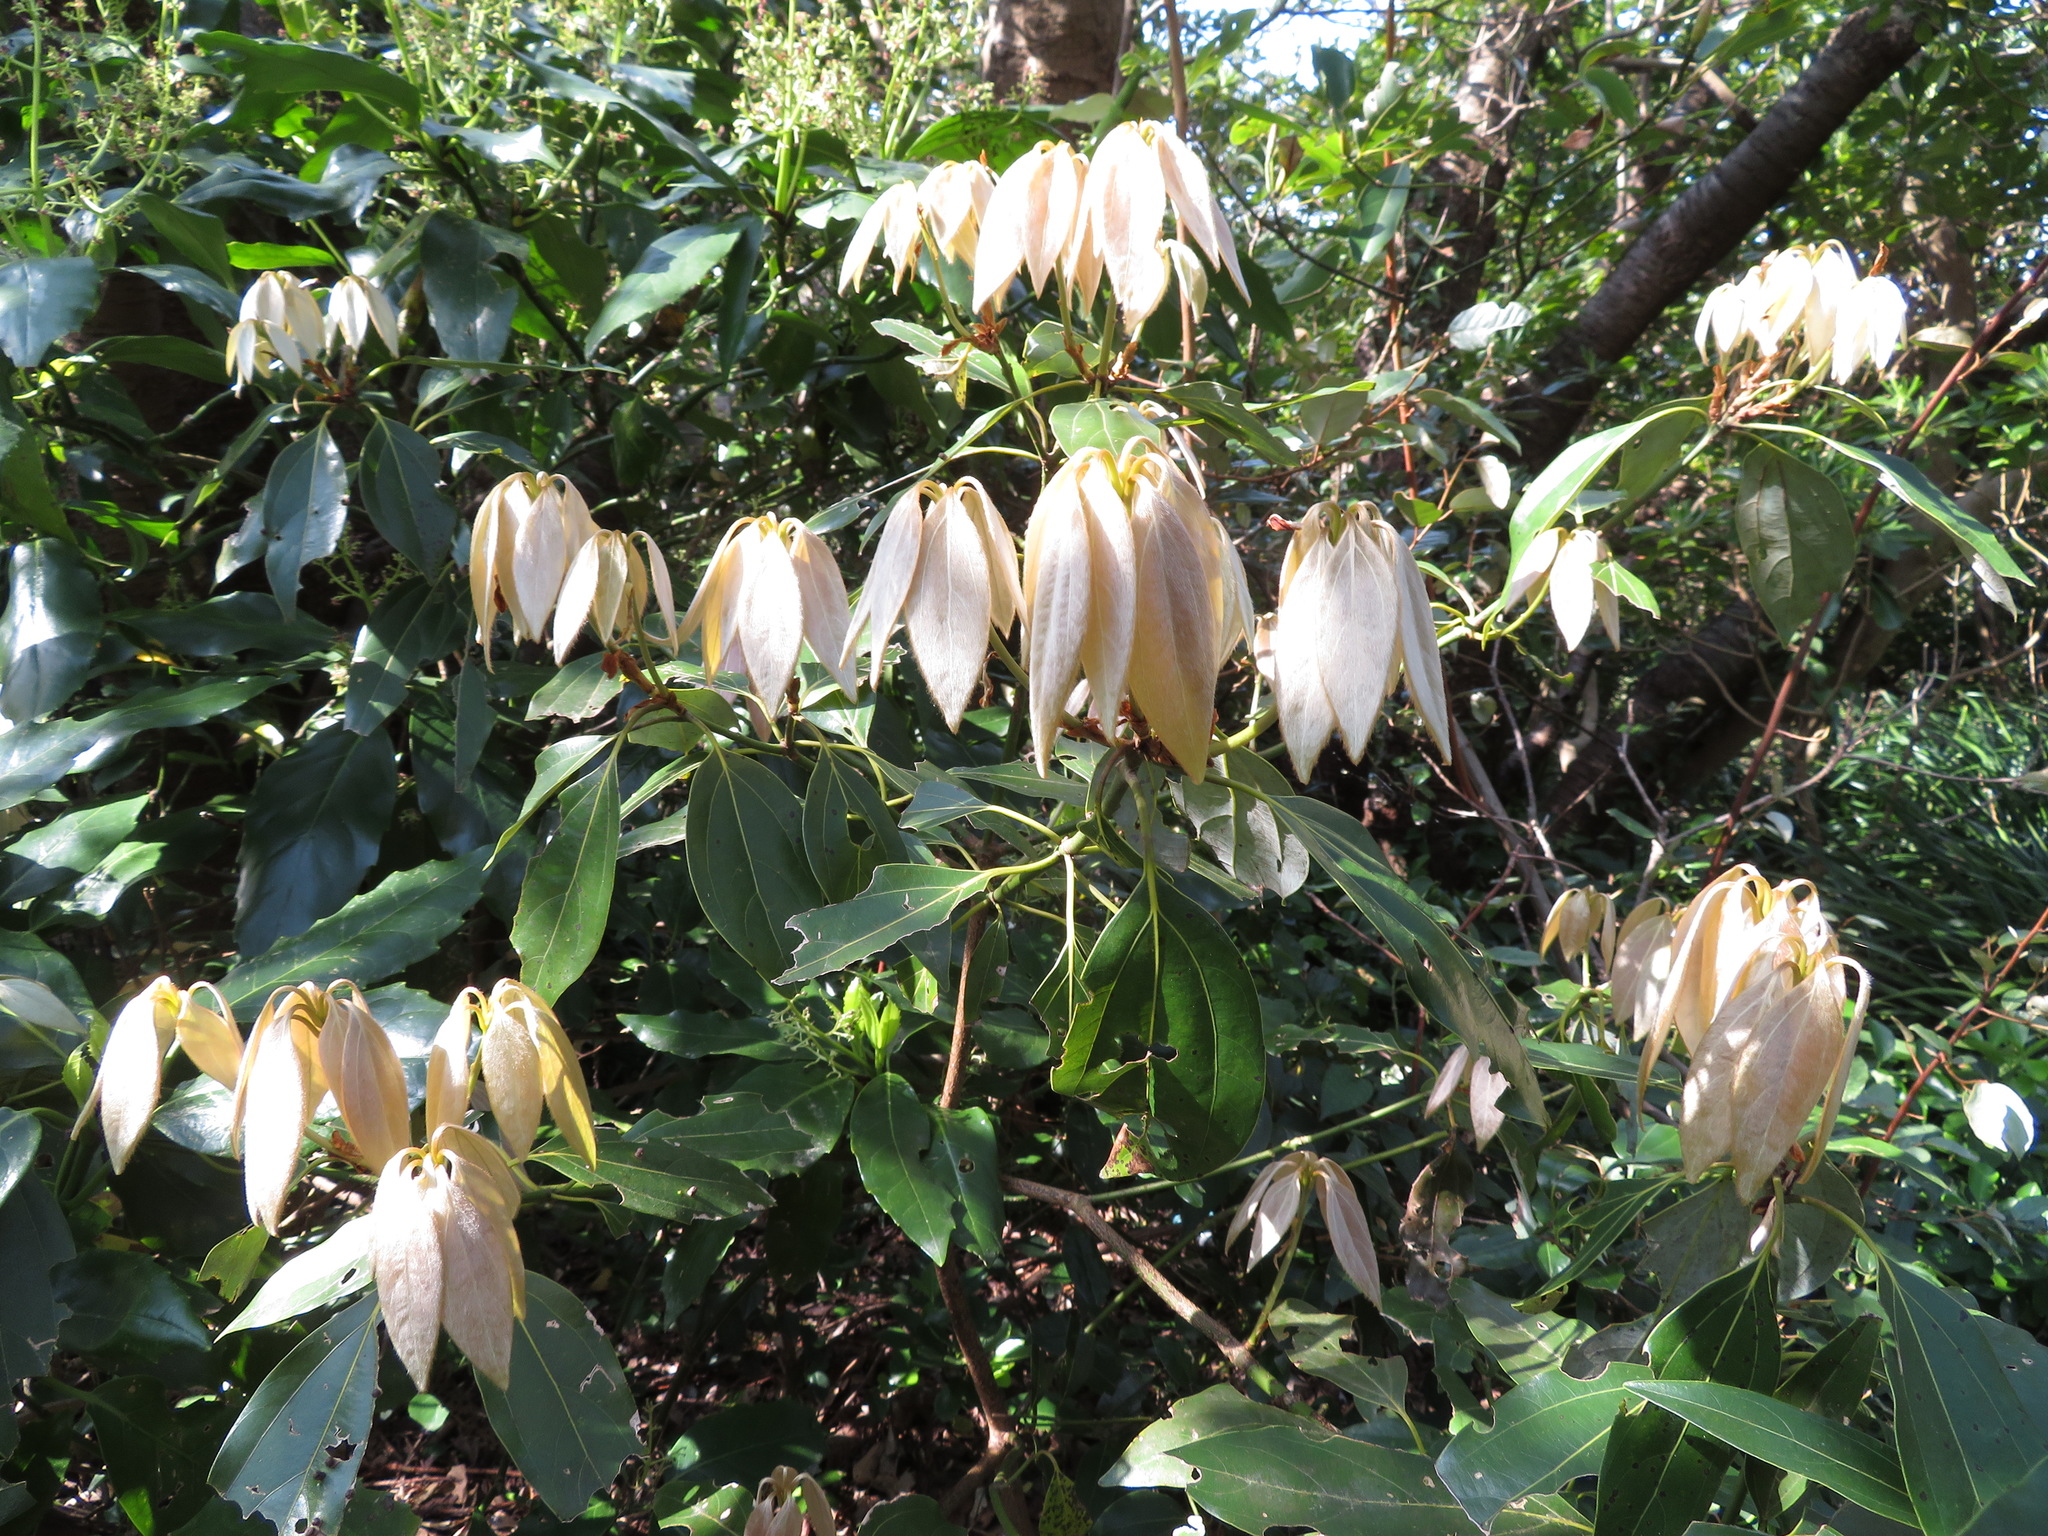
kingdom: Plantae
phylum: Tracheophyta
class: Magnoliopsida
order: Laurales
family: Lauraceae
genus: Neolitsea
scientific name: Neolitsea sericea
